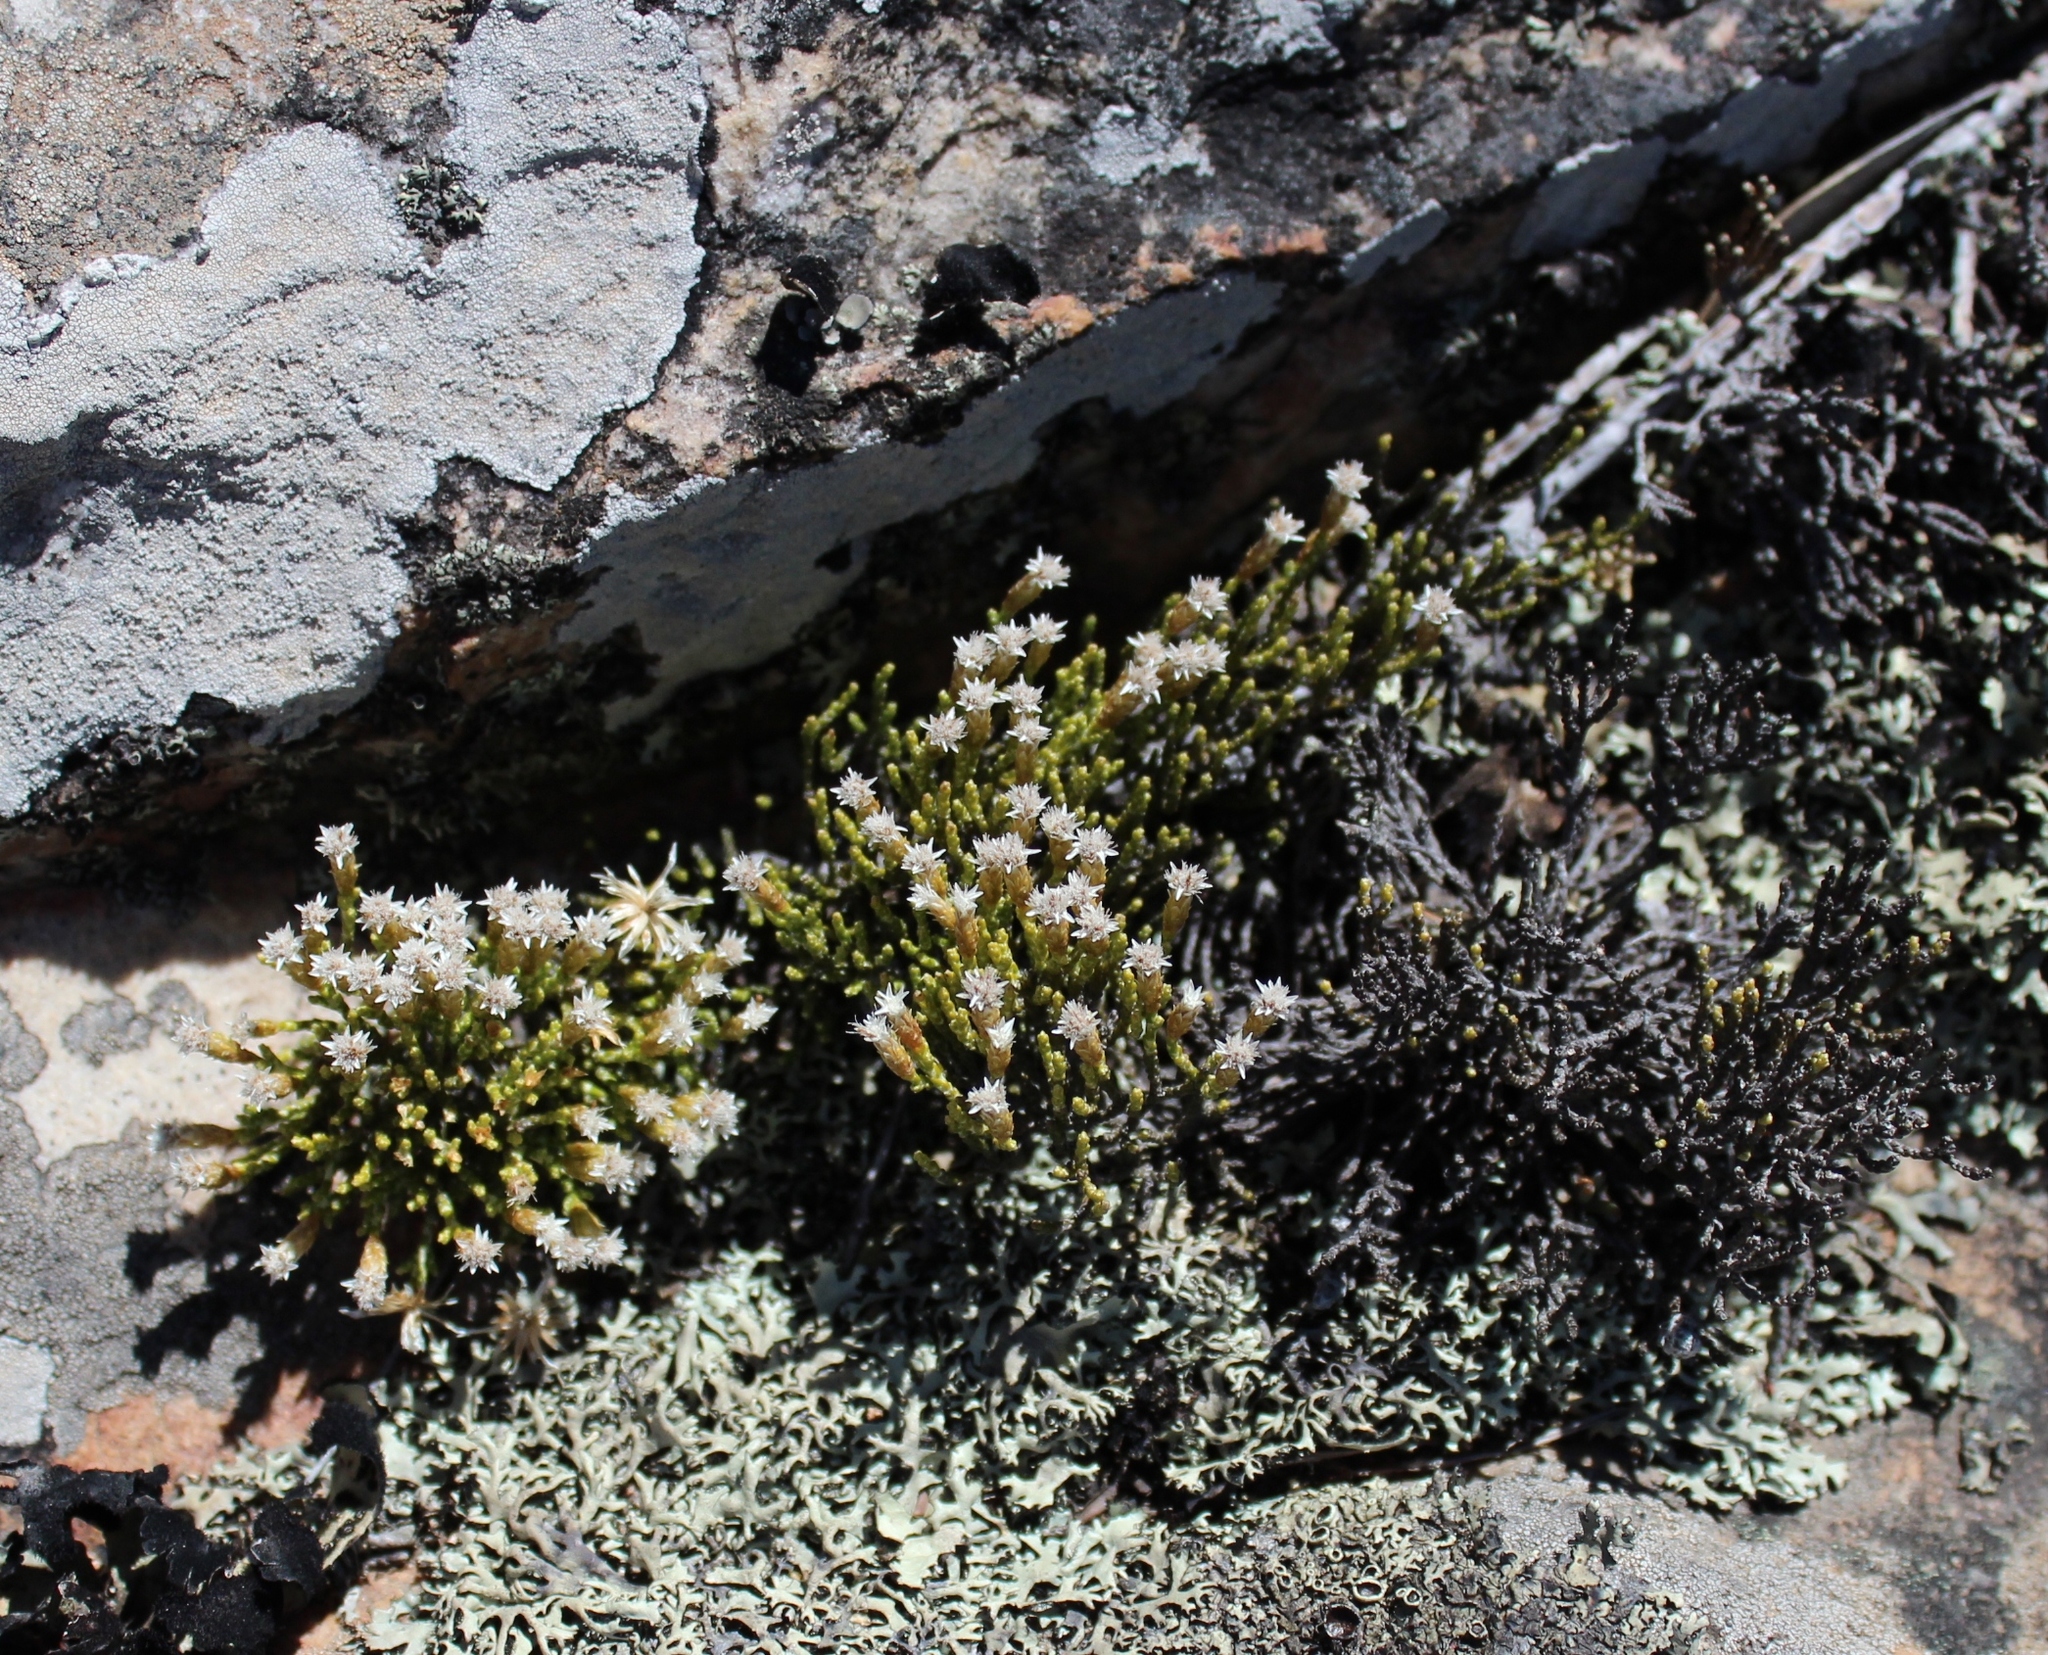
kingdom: Plantae
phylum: Tracheophyta
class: Magnoliopsida
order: Asterales
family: Asteraceae
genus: Dolichothrix
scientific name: Dolichothrix ericoides
